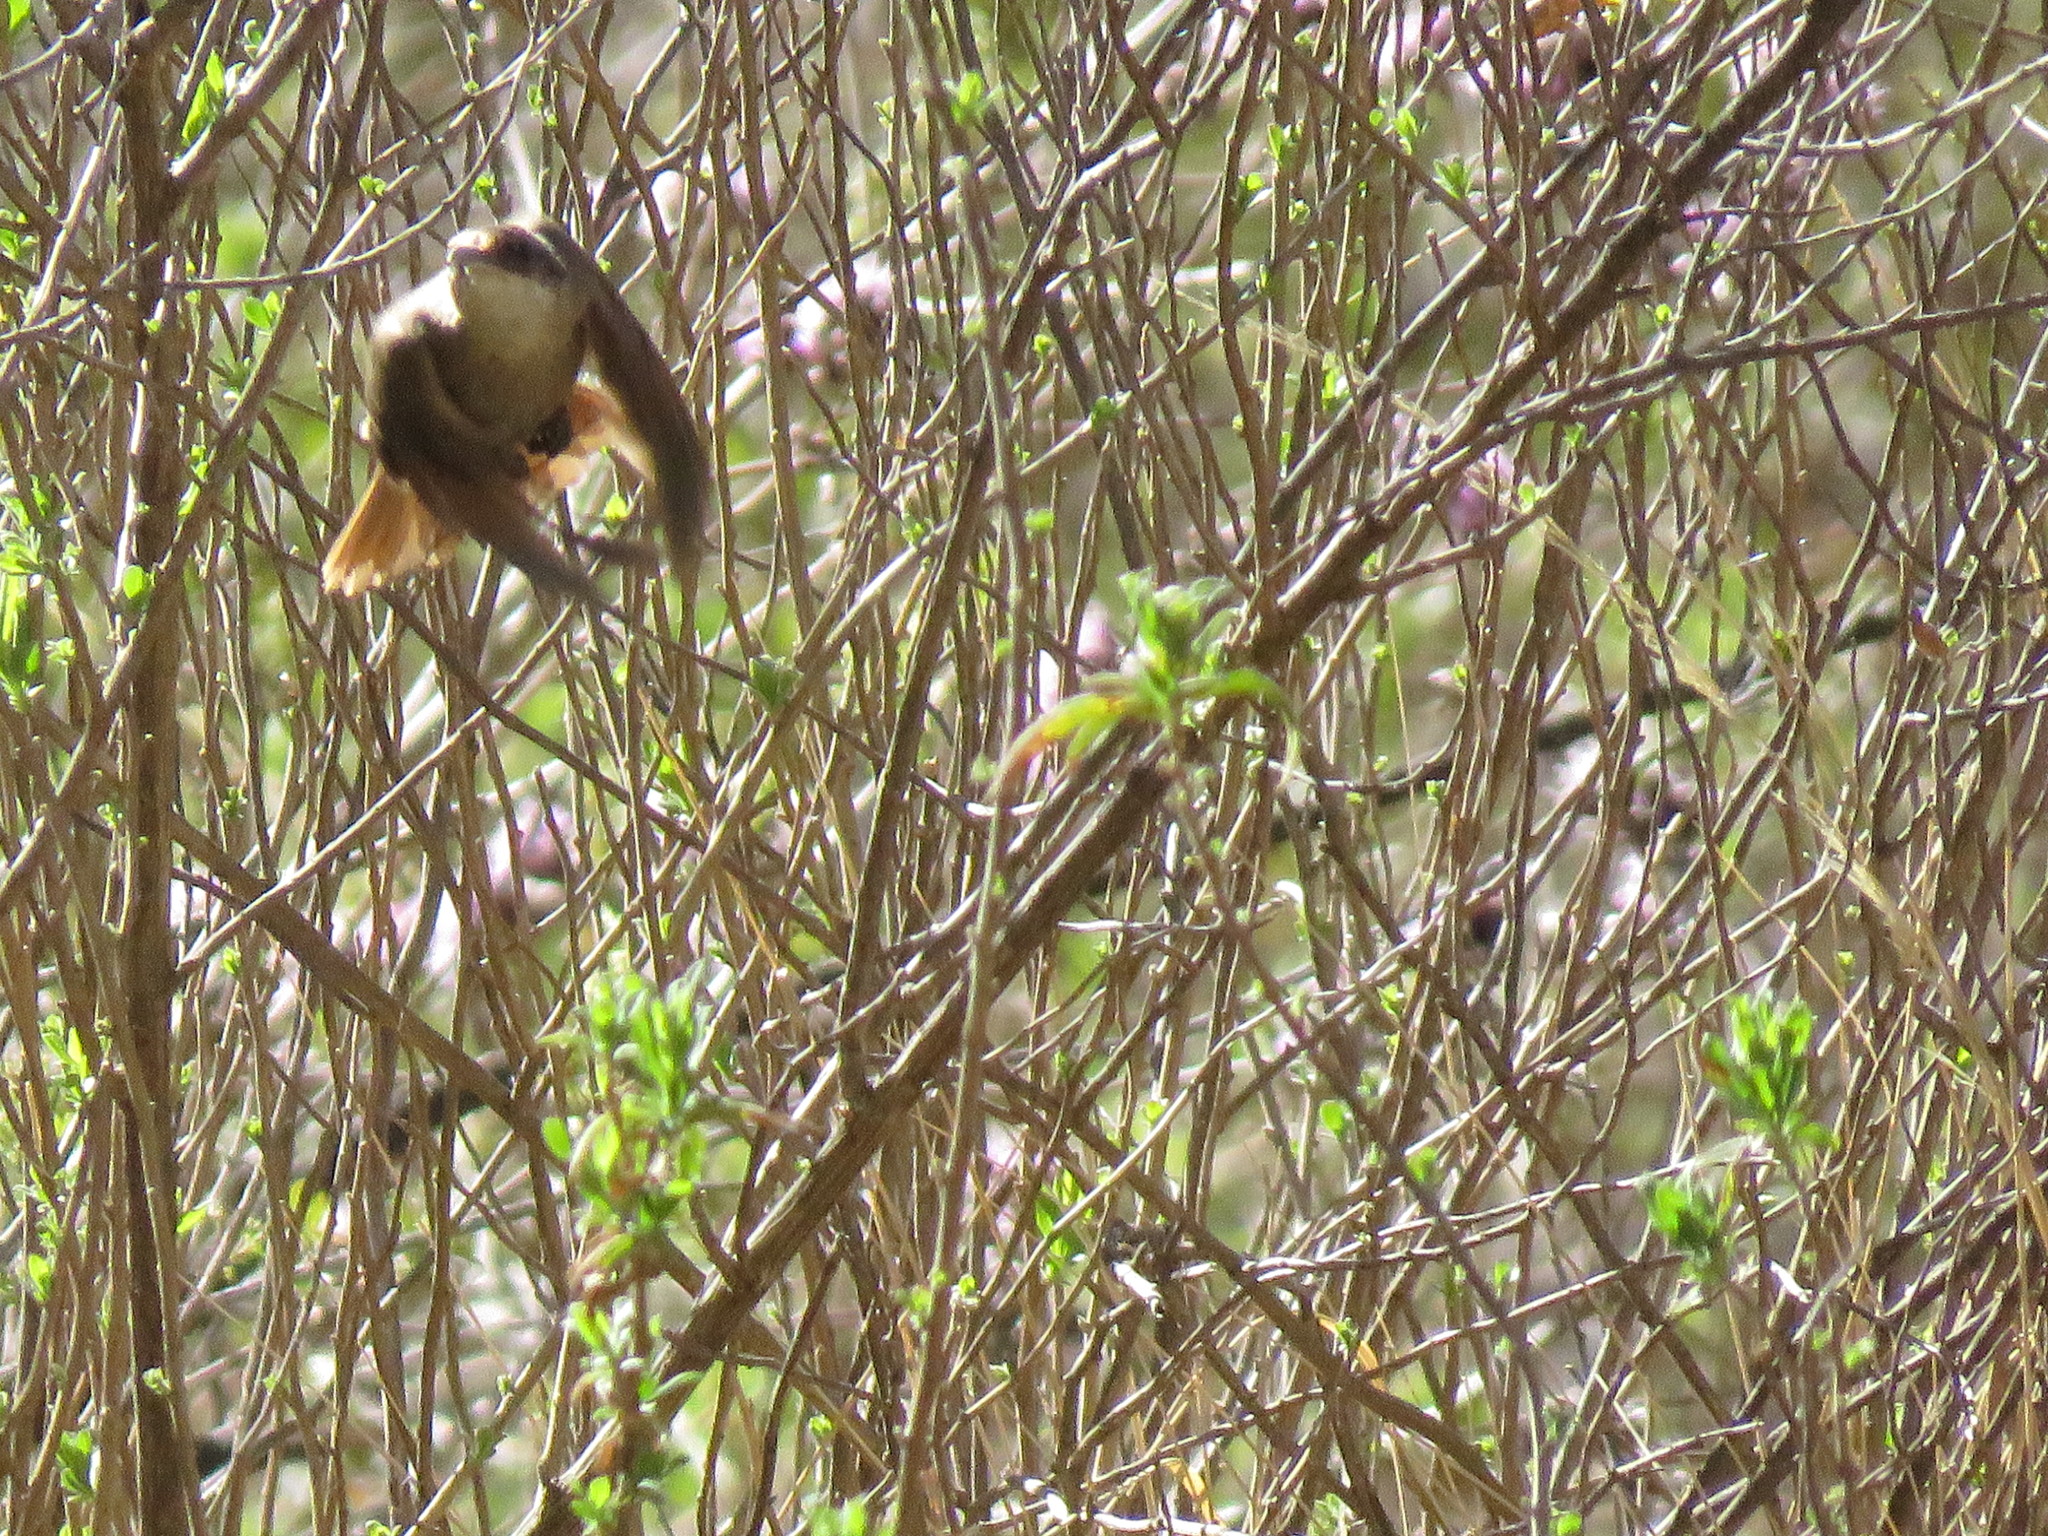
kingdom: Animalia
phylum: Chordata
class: Aves
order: Passeriformes
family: Furnariidae
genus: Upucerthia
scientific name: Upucerthia certhioides
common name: Chaco earthcreeper
